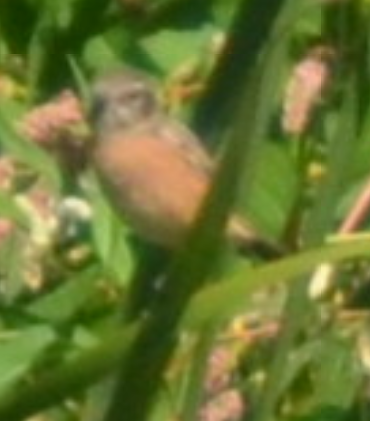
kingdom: Animalia
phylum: Chordata
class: Aves
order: Passeriformes
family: Muscicapidae
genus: Saxicola
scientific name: Saxicola rubicola
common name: European stonechat
